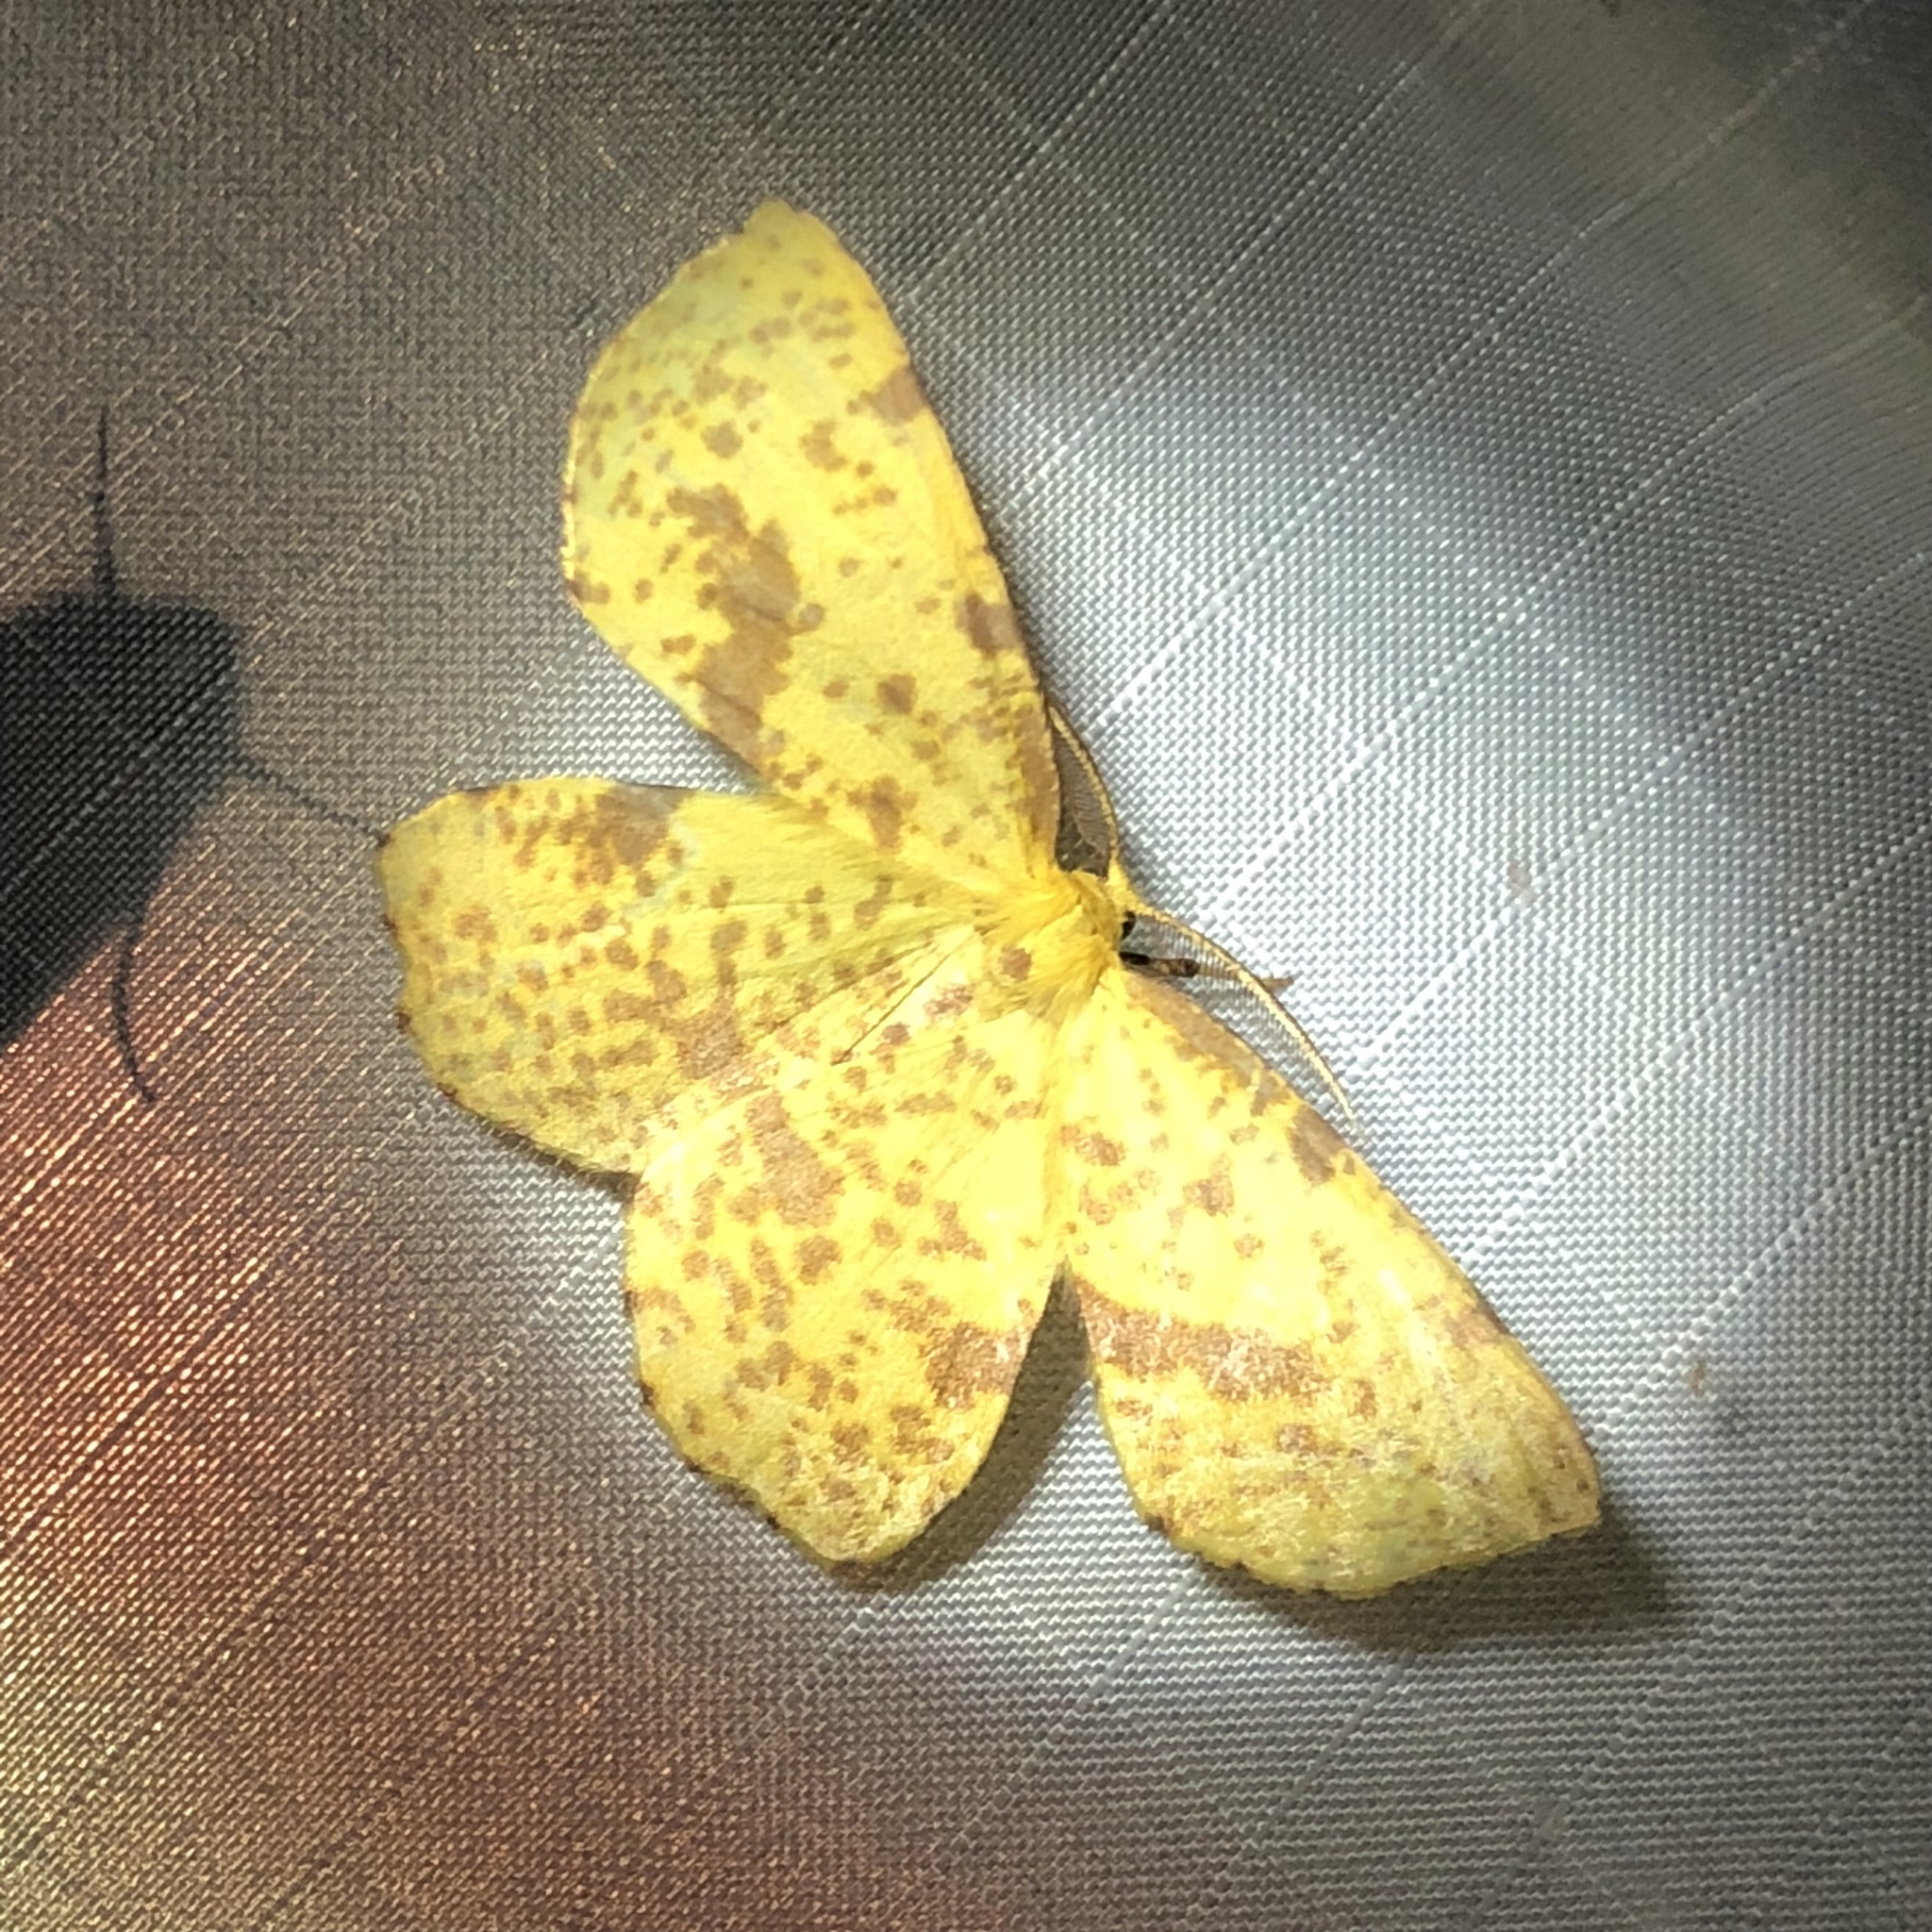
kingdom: Animalia
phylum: Arthropoda
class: Insecta
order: Lepidoptera
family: Geometridae
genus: Xanthotype
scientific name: Xanthotype
